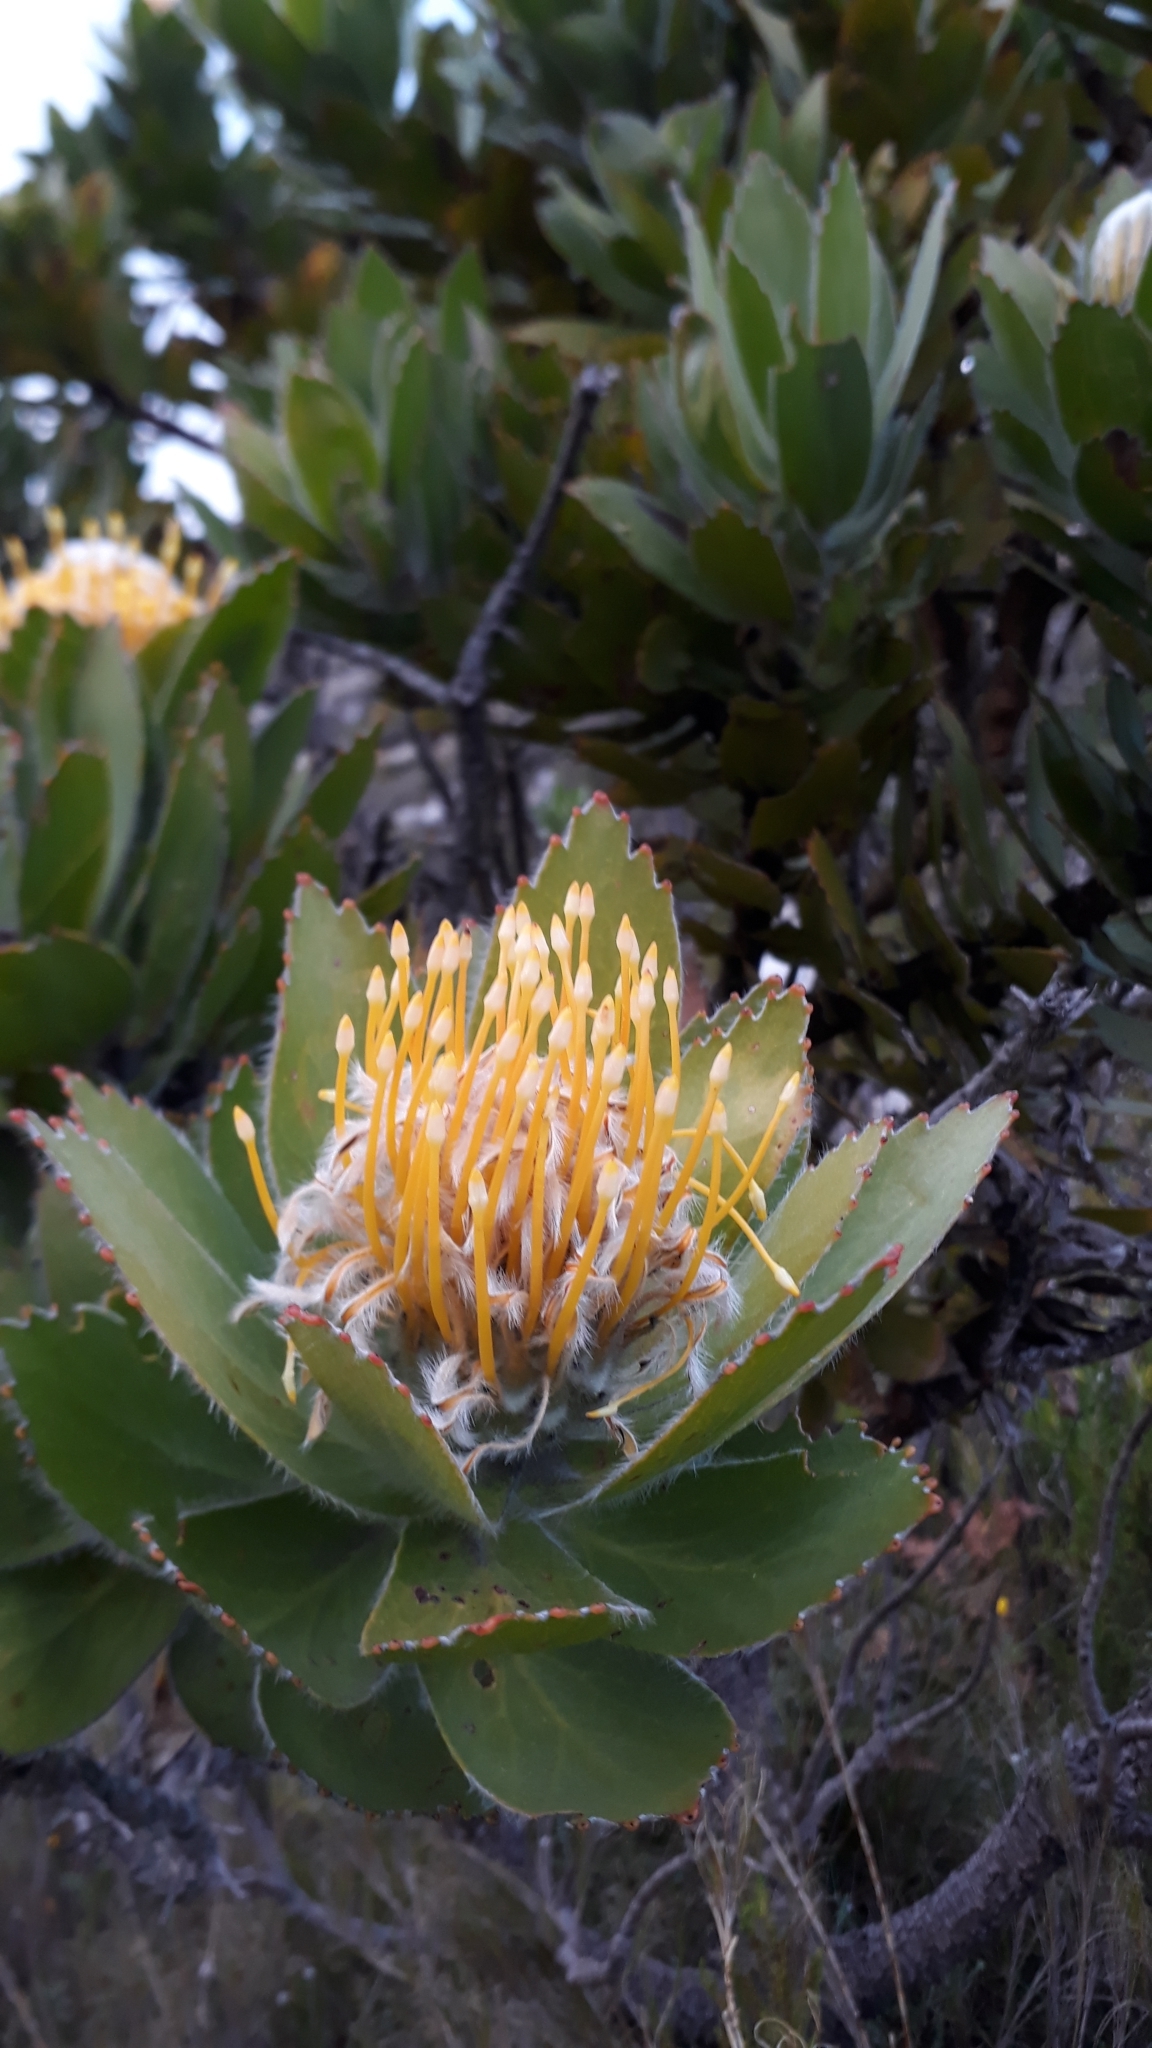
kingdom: Plantae
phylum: Tracheophyta
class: Magnoliopsida
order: Proteales
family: Proteaceae
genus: Leucospermum
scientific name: Leucospermum conocarpodendron
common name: Tree pincushion
